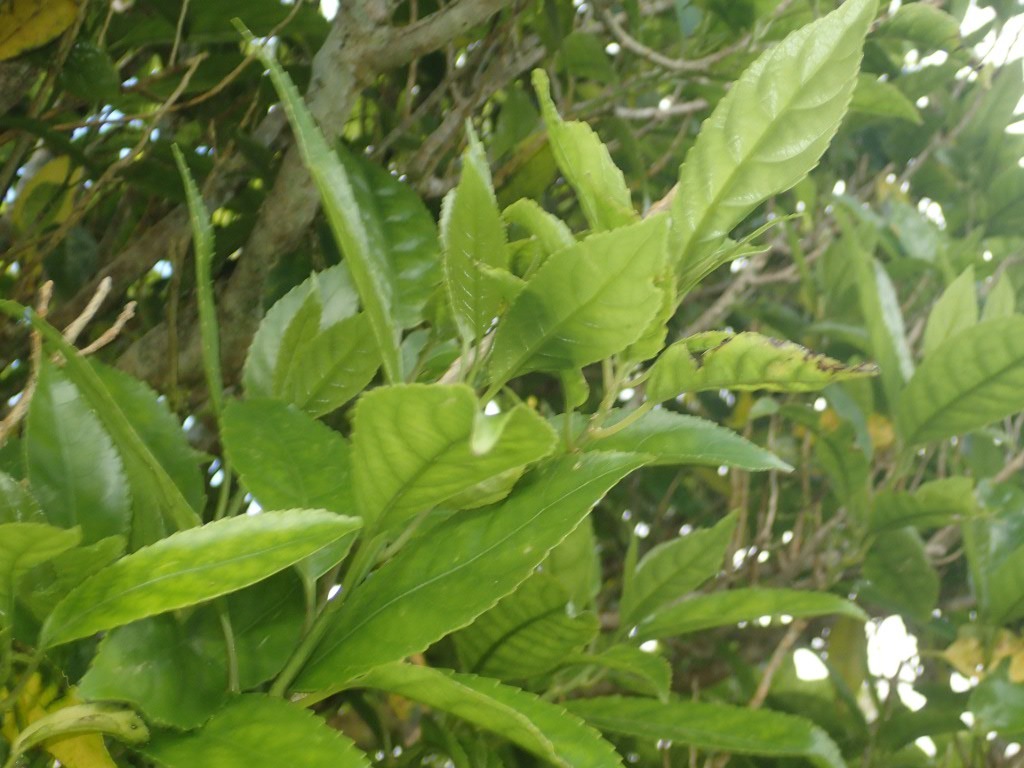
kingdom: Plantae
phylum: Tracheophyta
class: Magnoliopsida
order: Malpighiales
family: Violaceae
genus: Melicytus
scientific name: Melicytus ramiflorus
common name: Mahoe
